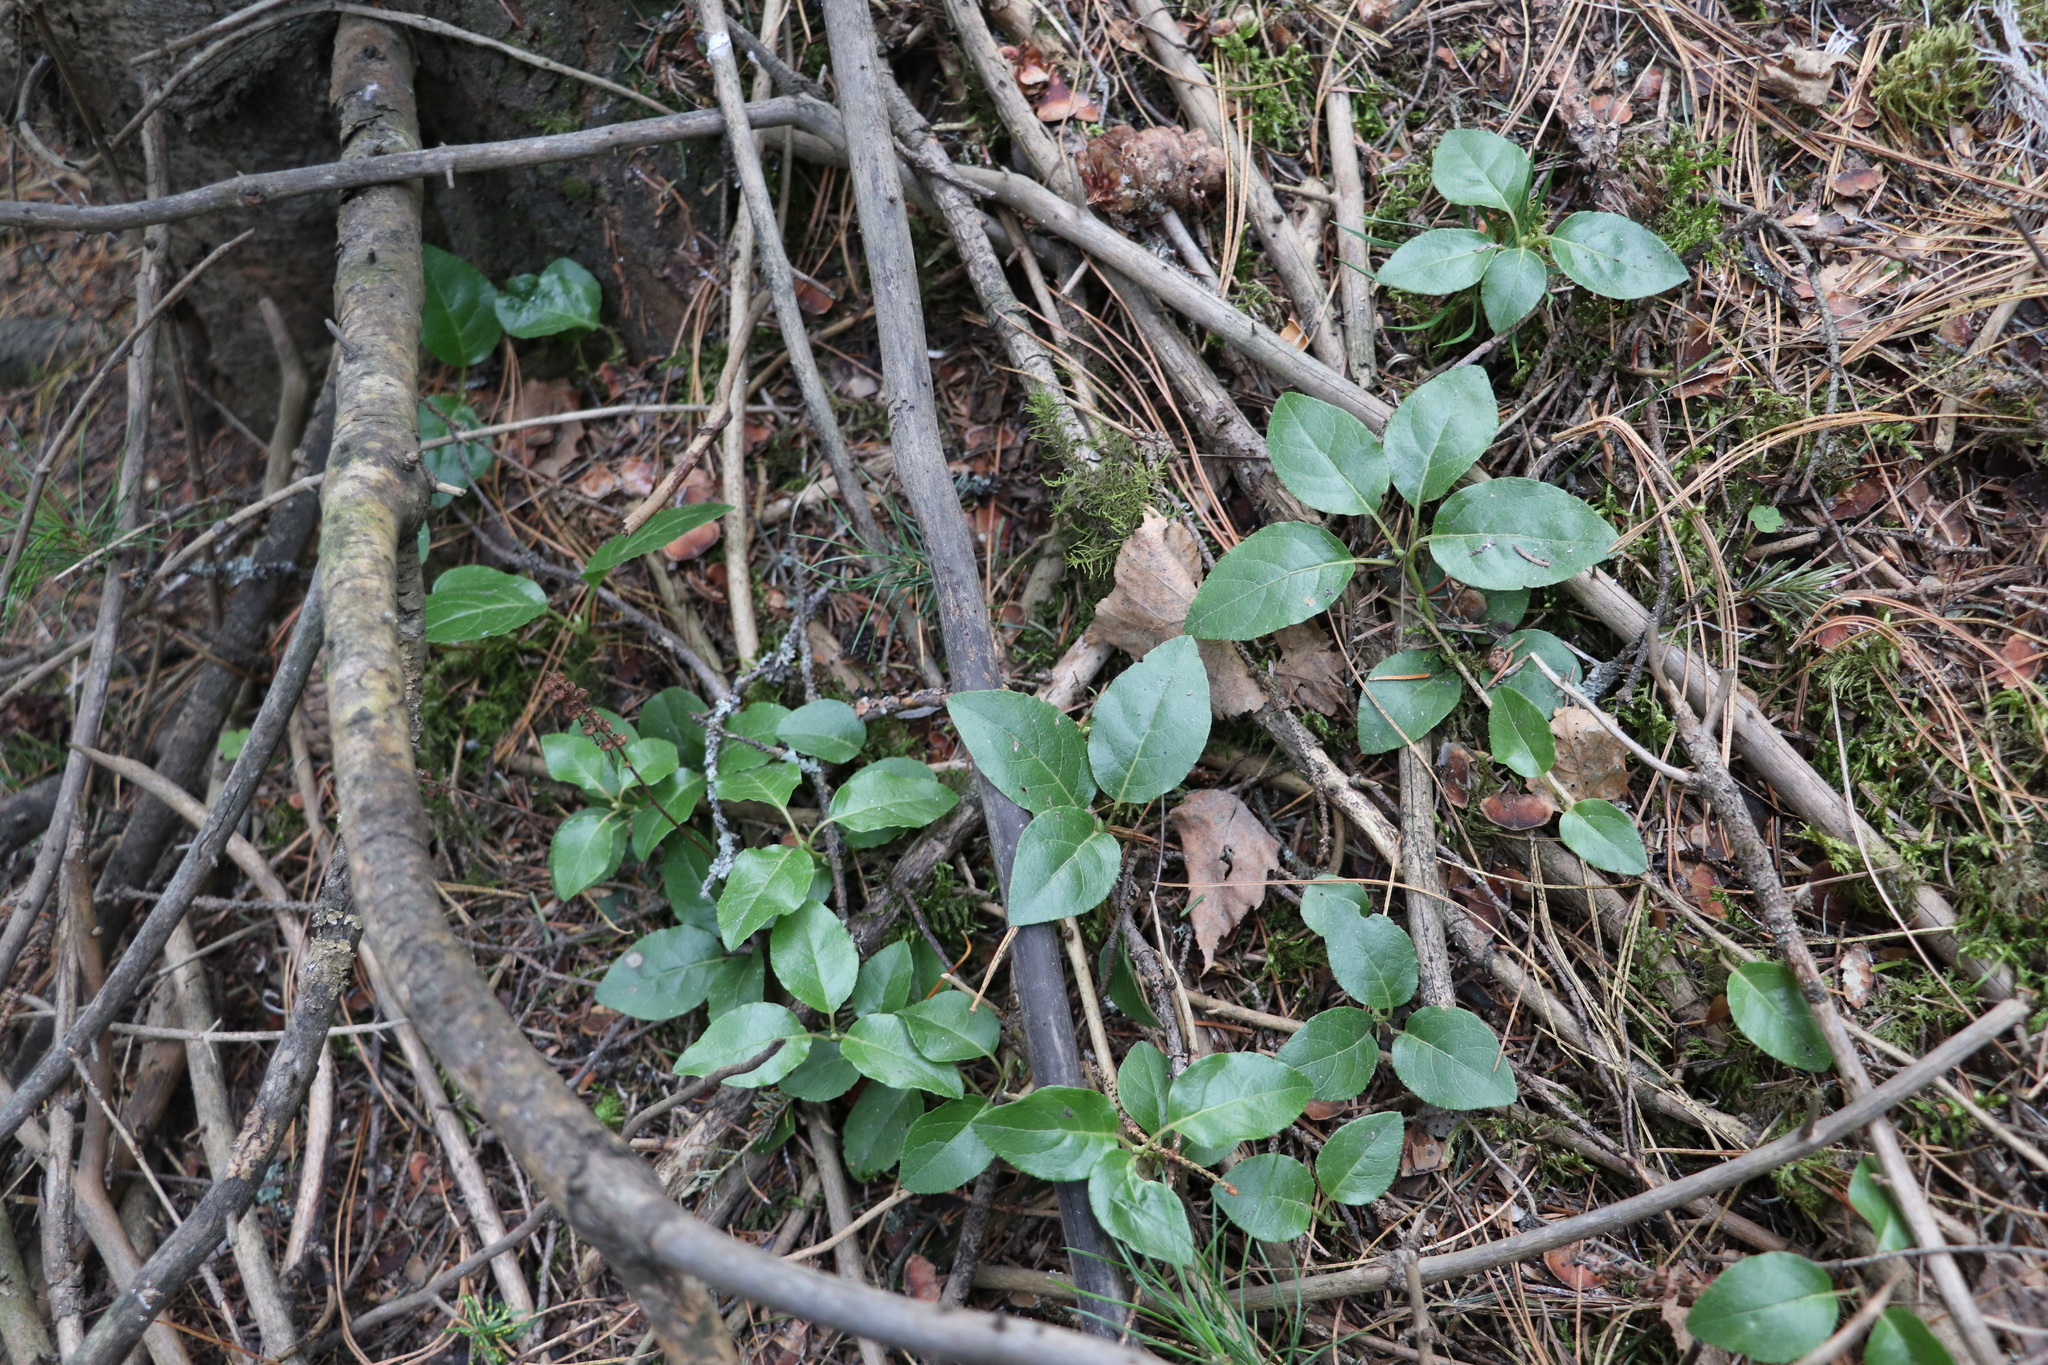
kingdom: Plantae
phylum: Tracheophyta
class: Magnoliopsida
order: Ericales
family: Ericaceae
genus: Orthilia
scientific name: Orthilia secunda
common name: One-sided orthilia
